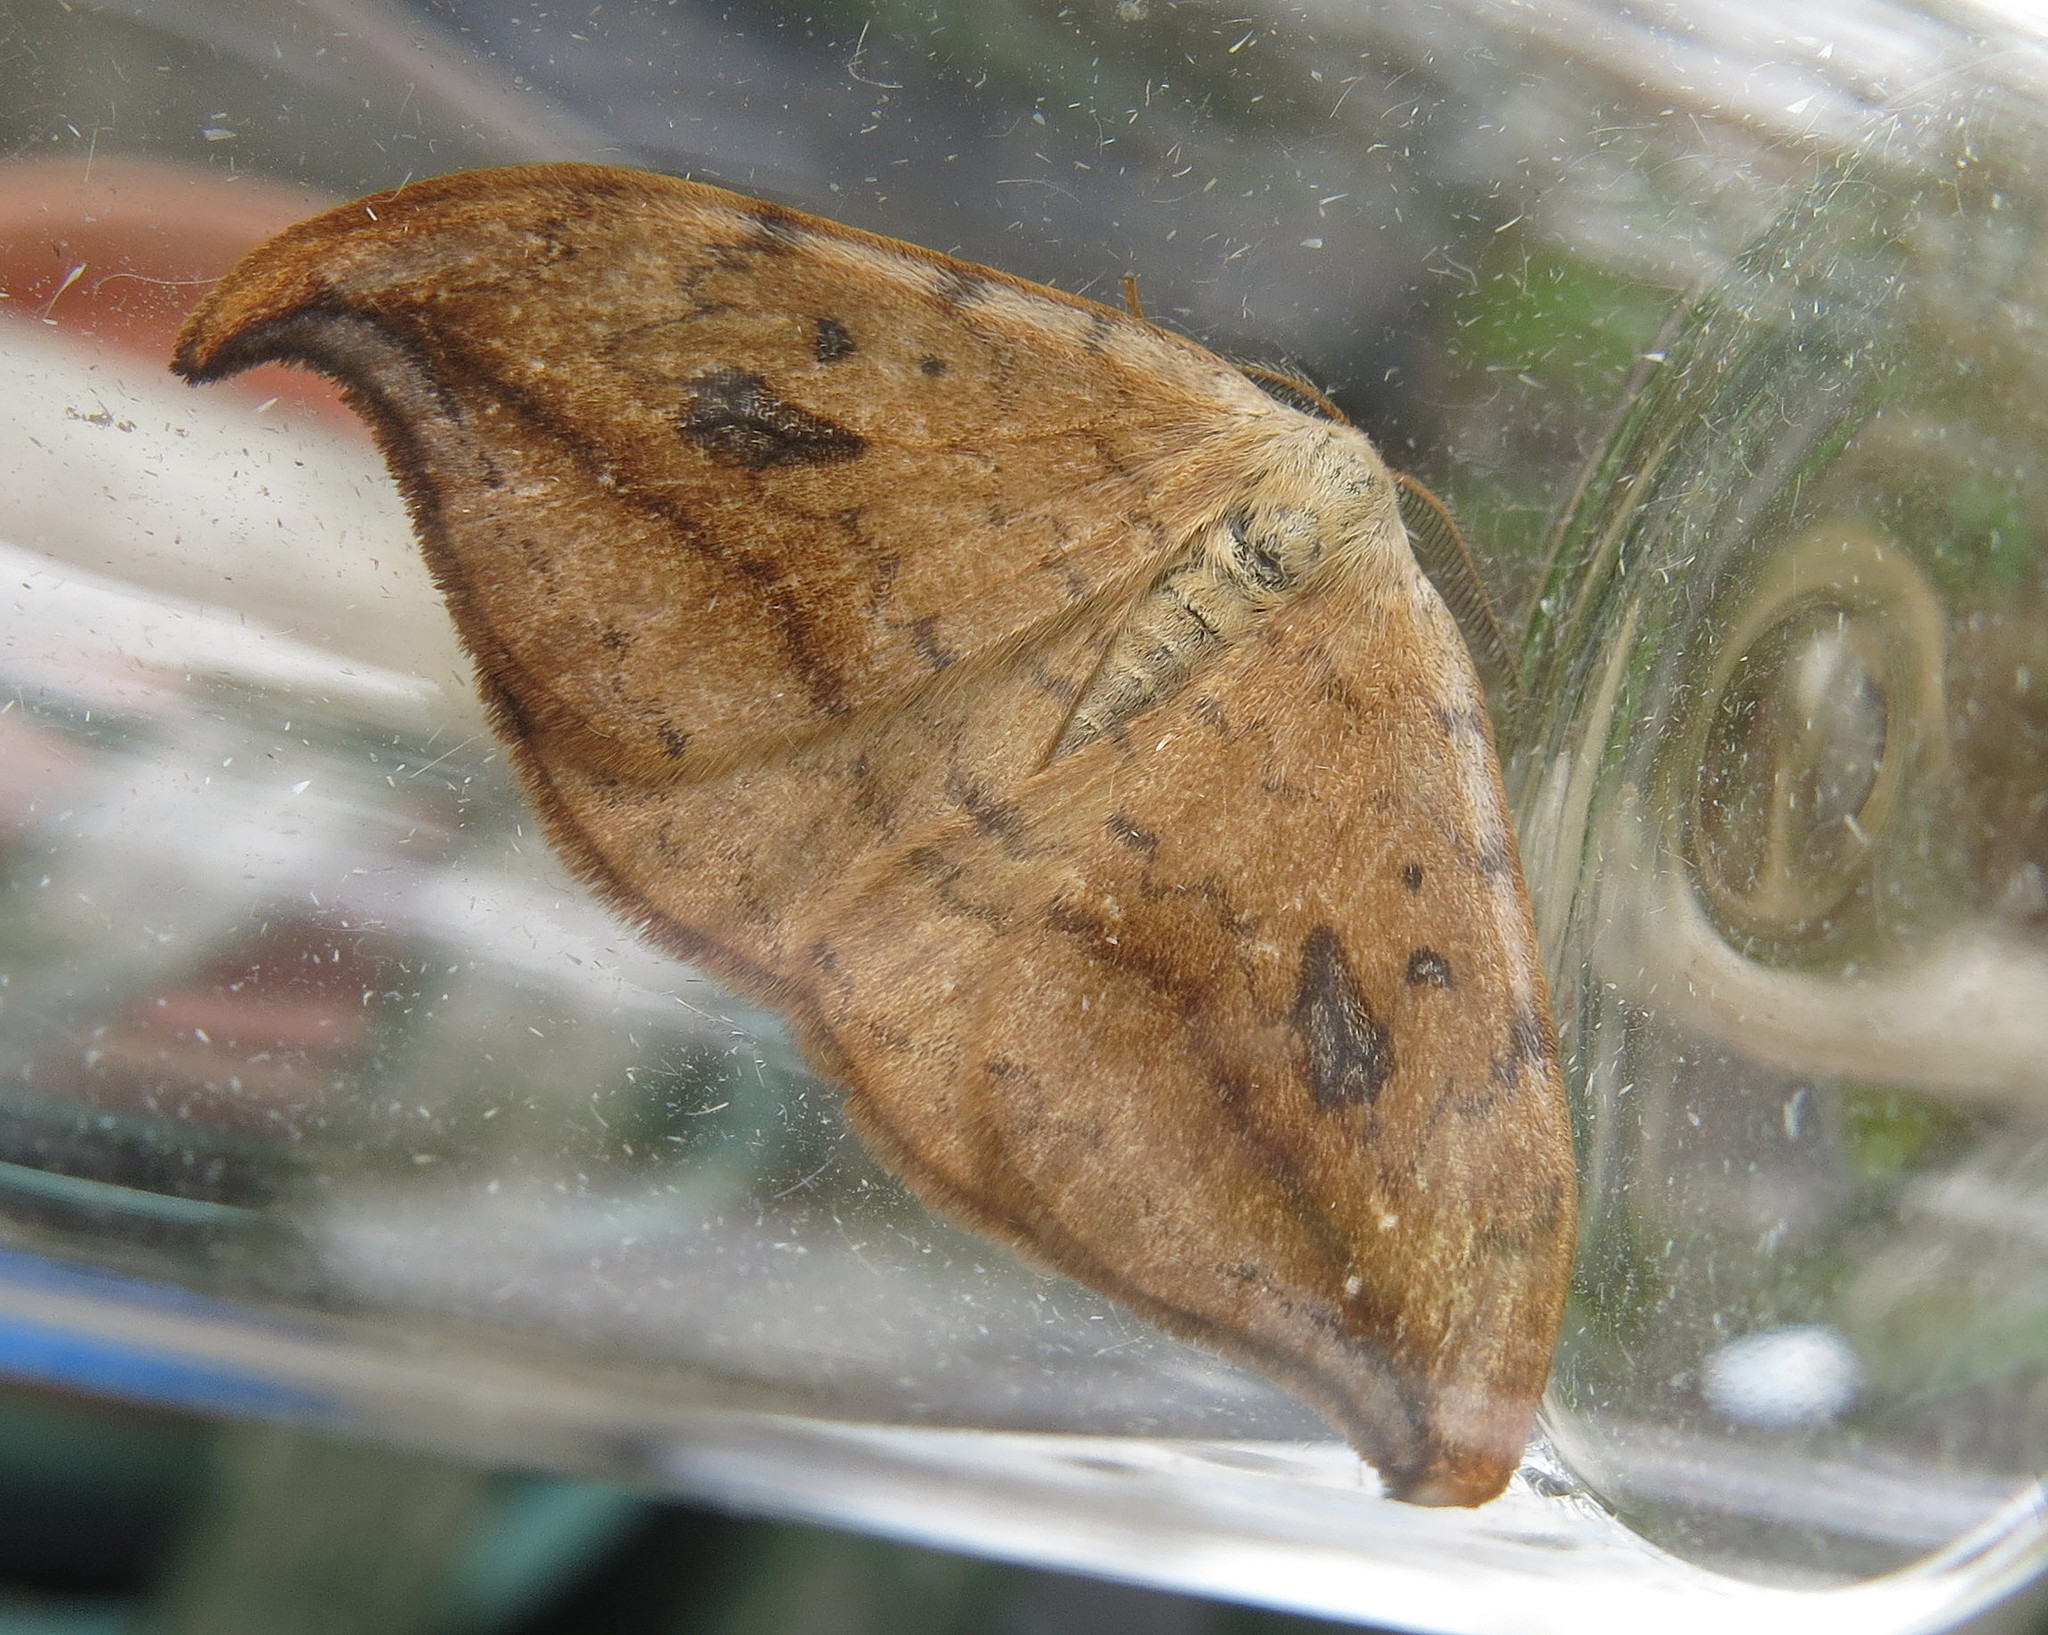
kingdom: Animalia
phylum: Arthropoda
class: Insecta
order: Lepidoptera
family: Drepanidae
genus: Drepana
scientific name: Drepana falcataria
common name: Pebble hook-tip
